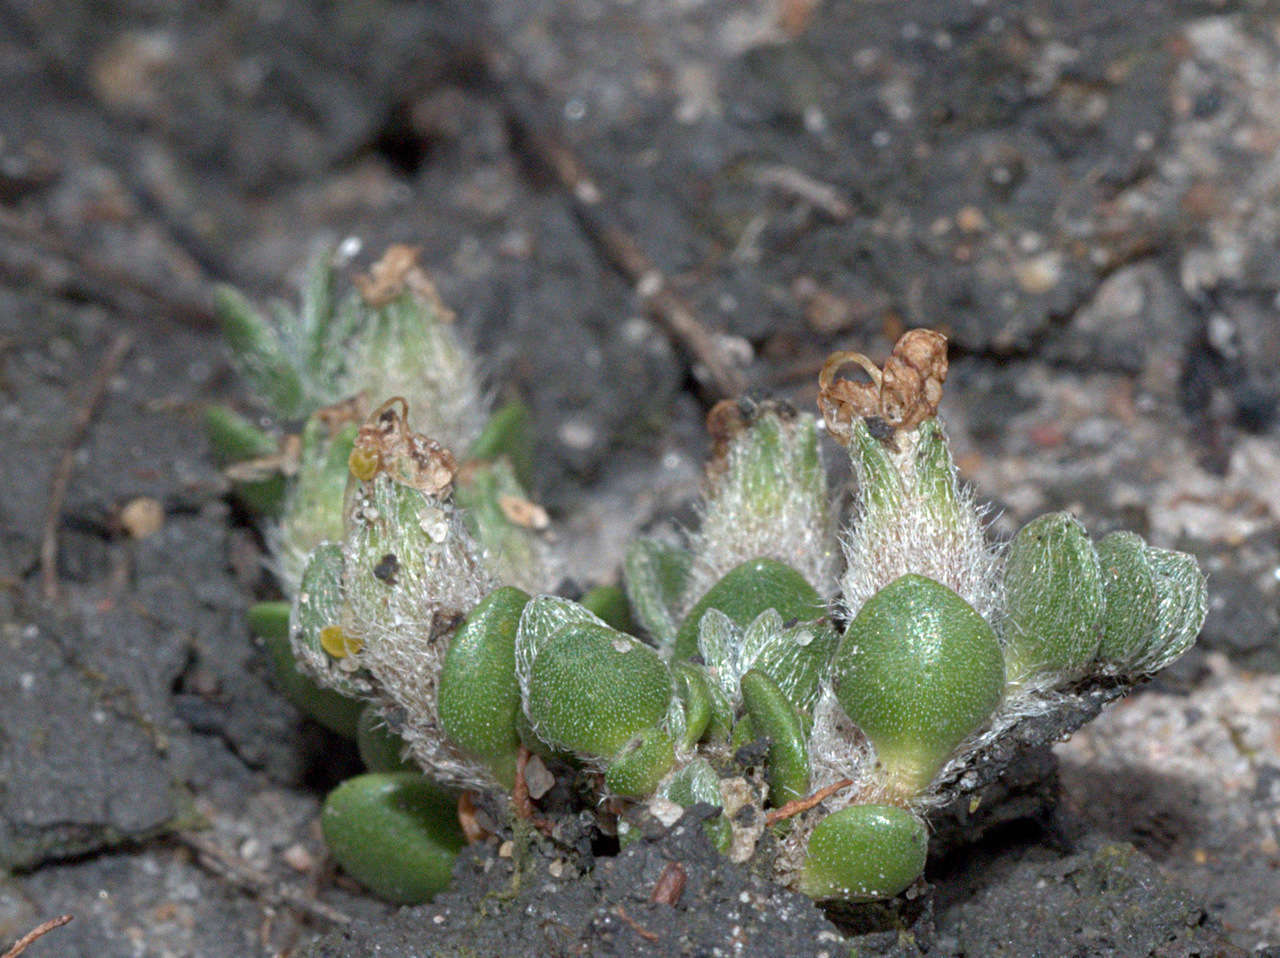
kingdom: Plantae
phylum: Tracheophyta
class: Magnoliopsida
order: Solanales
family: Convolvulaceae
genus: Wilsonia
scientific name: Wilsonia rotundifolia
